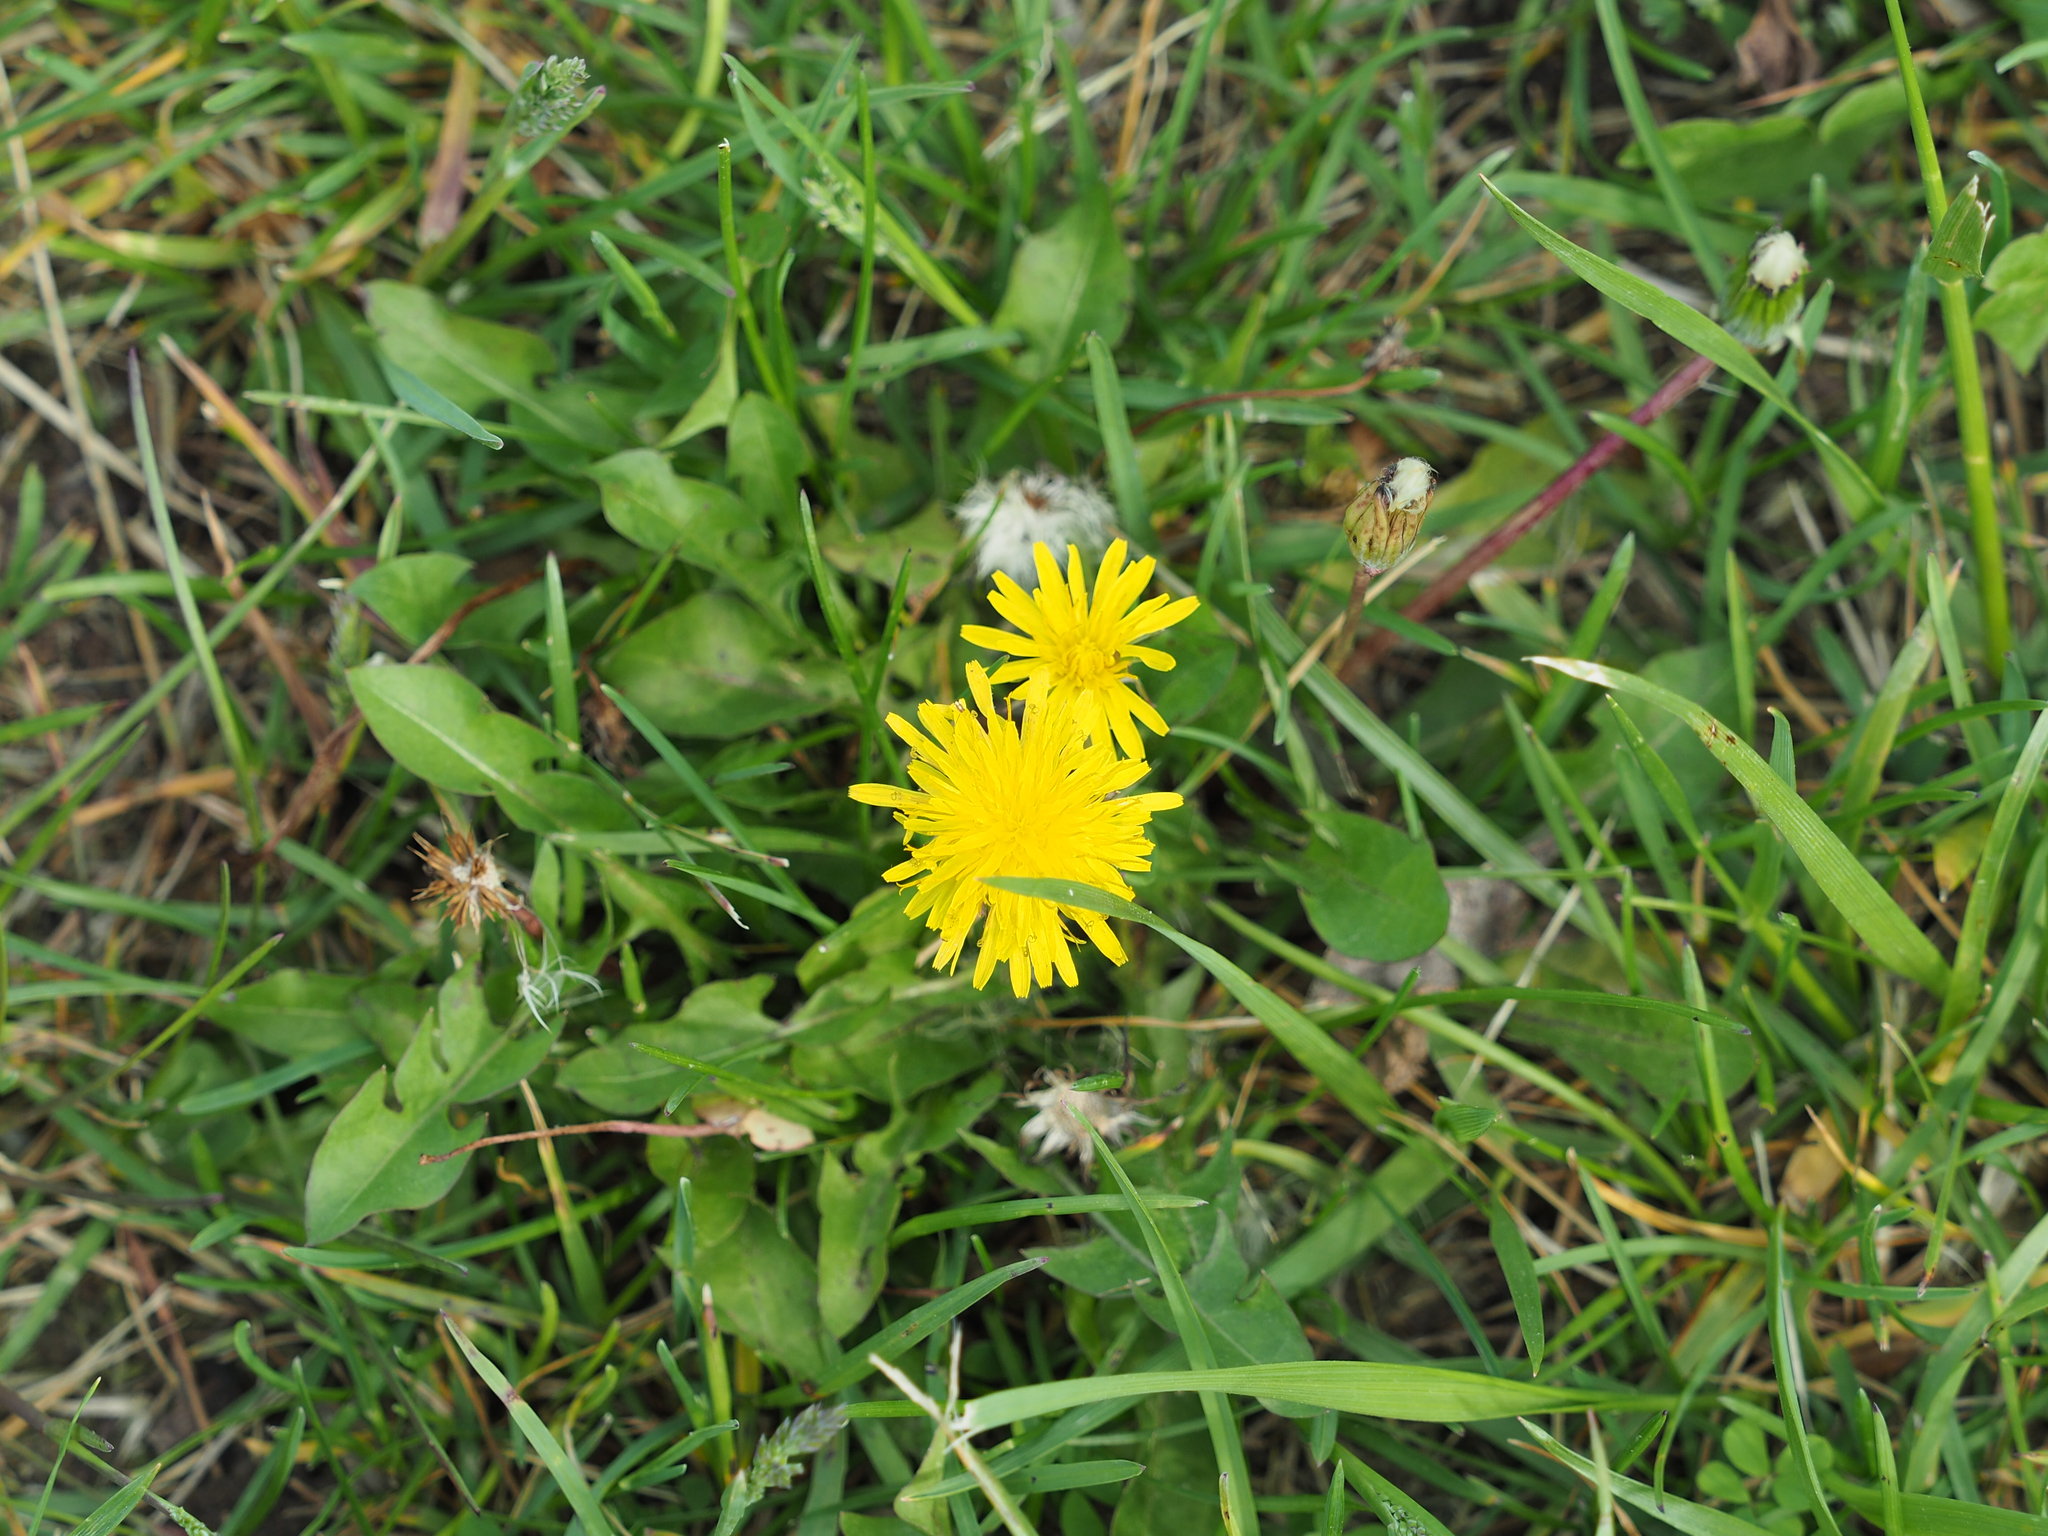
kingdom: Plantae
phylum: Tracheophyta
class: Magnoliopsida
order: Asterales
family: Asteraceae
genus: Taraxacum
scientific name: Taraxacum officinale
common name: Common dandelion
